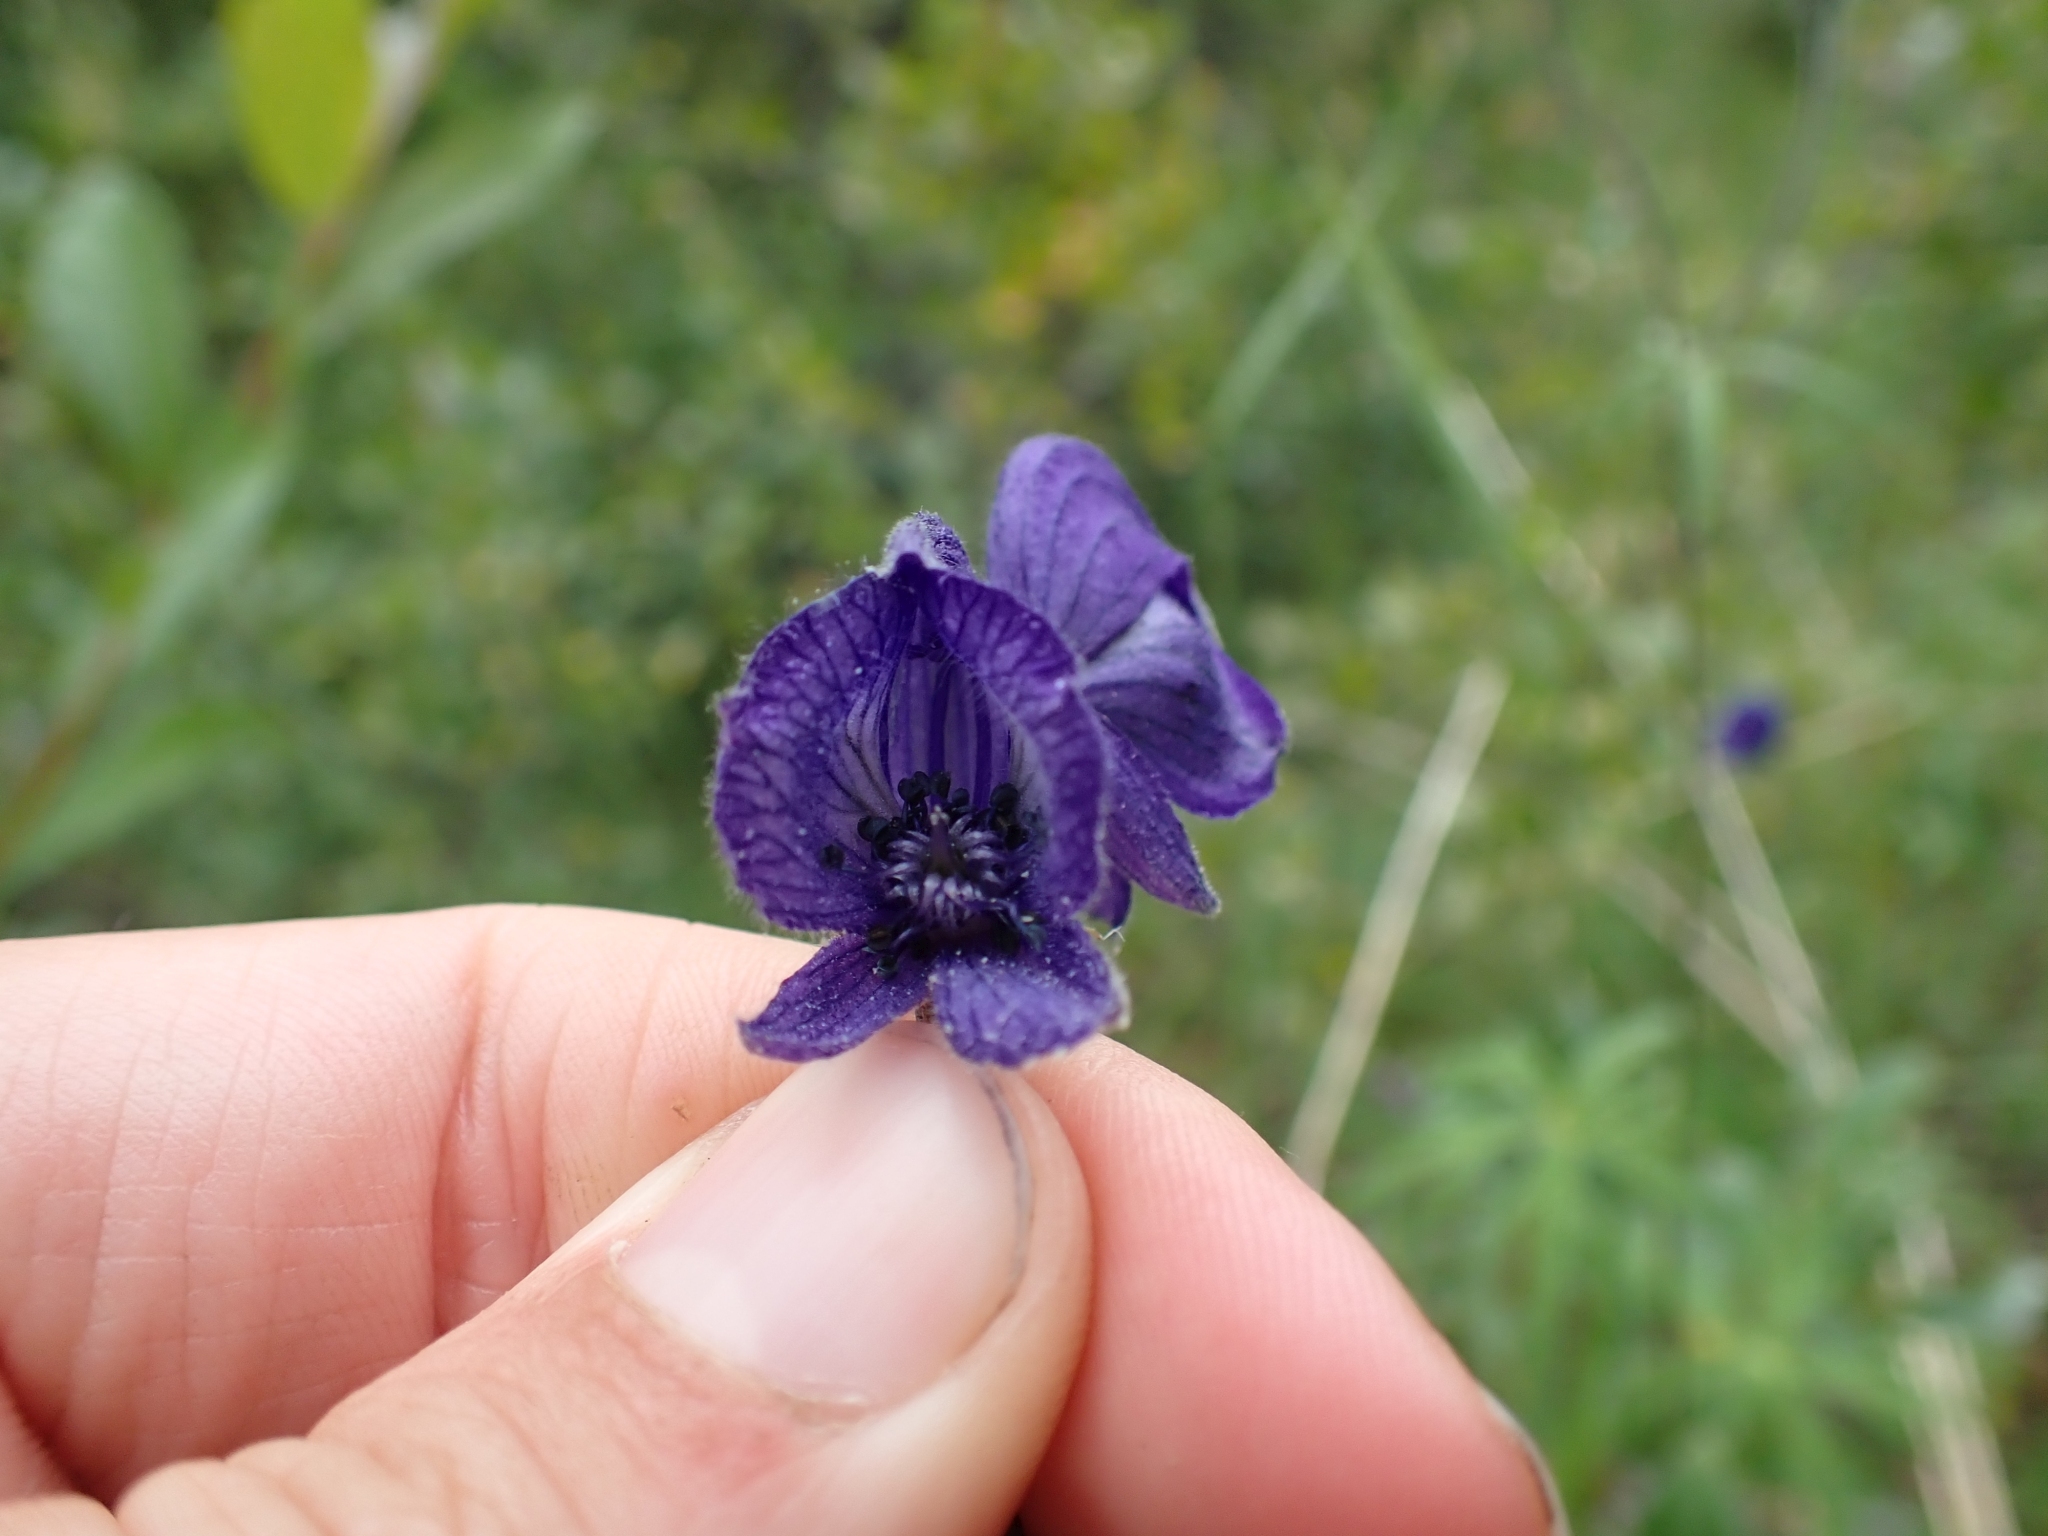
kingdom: Plantae
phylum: Tracheophyta
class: Magnoliopsida
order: Ranunculales
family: Ranunculaceae
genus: Aconitum
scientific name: Aconitum delphiniifolium
